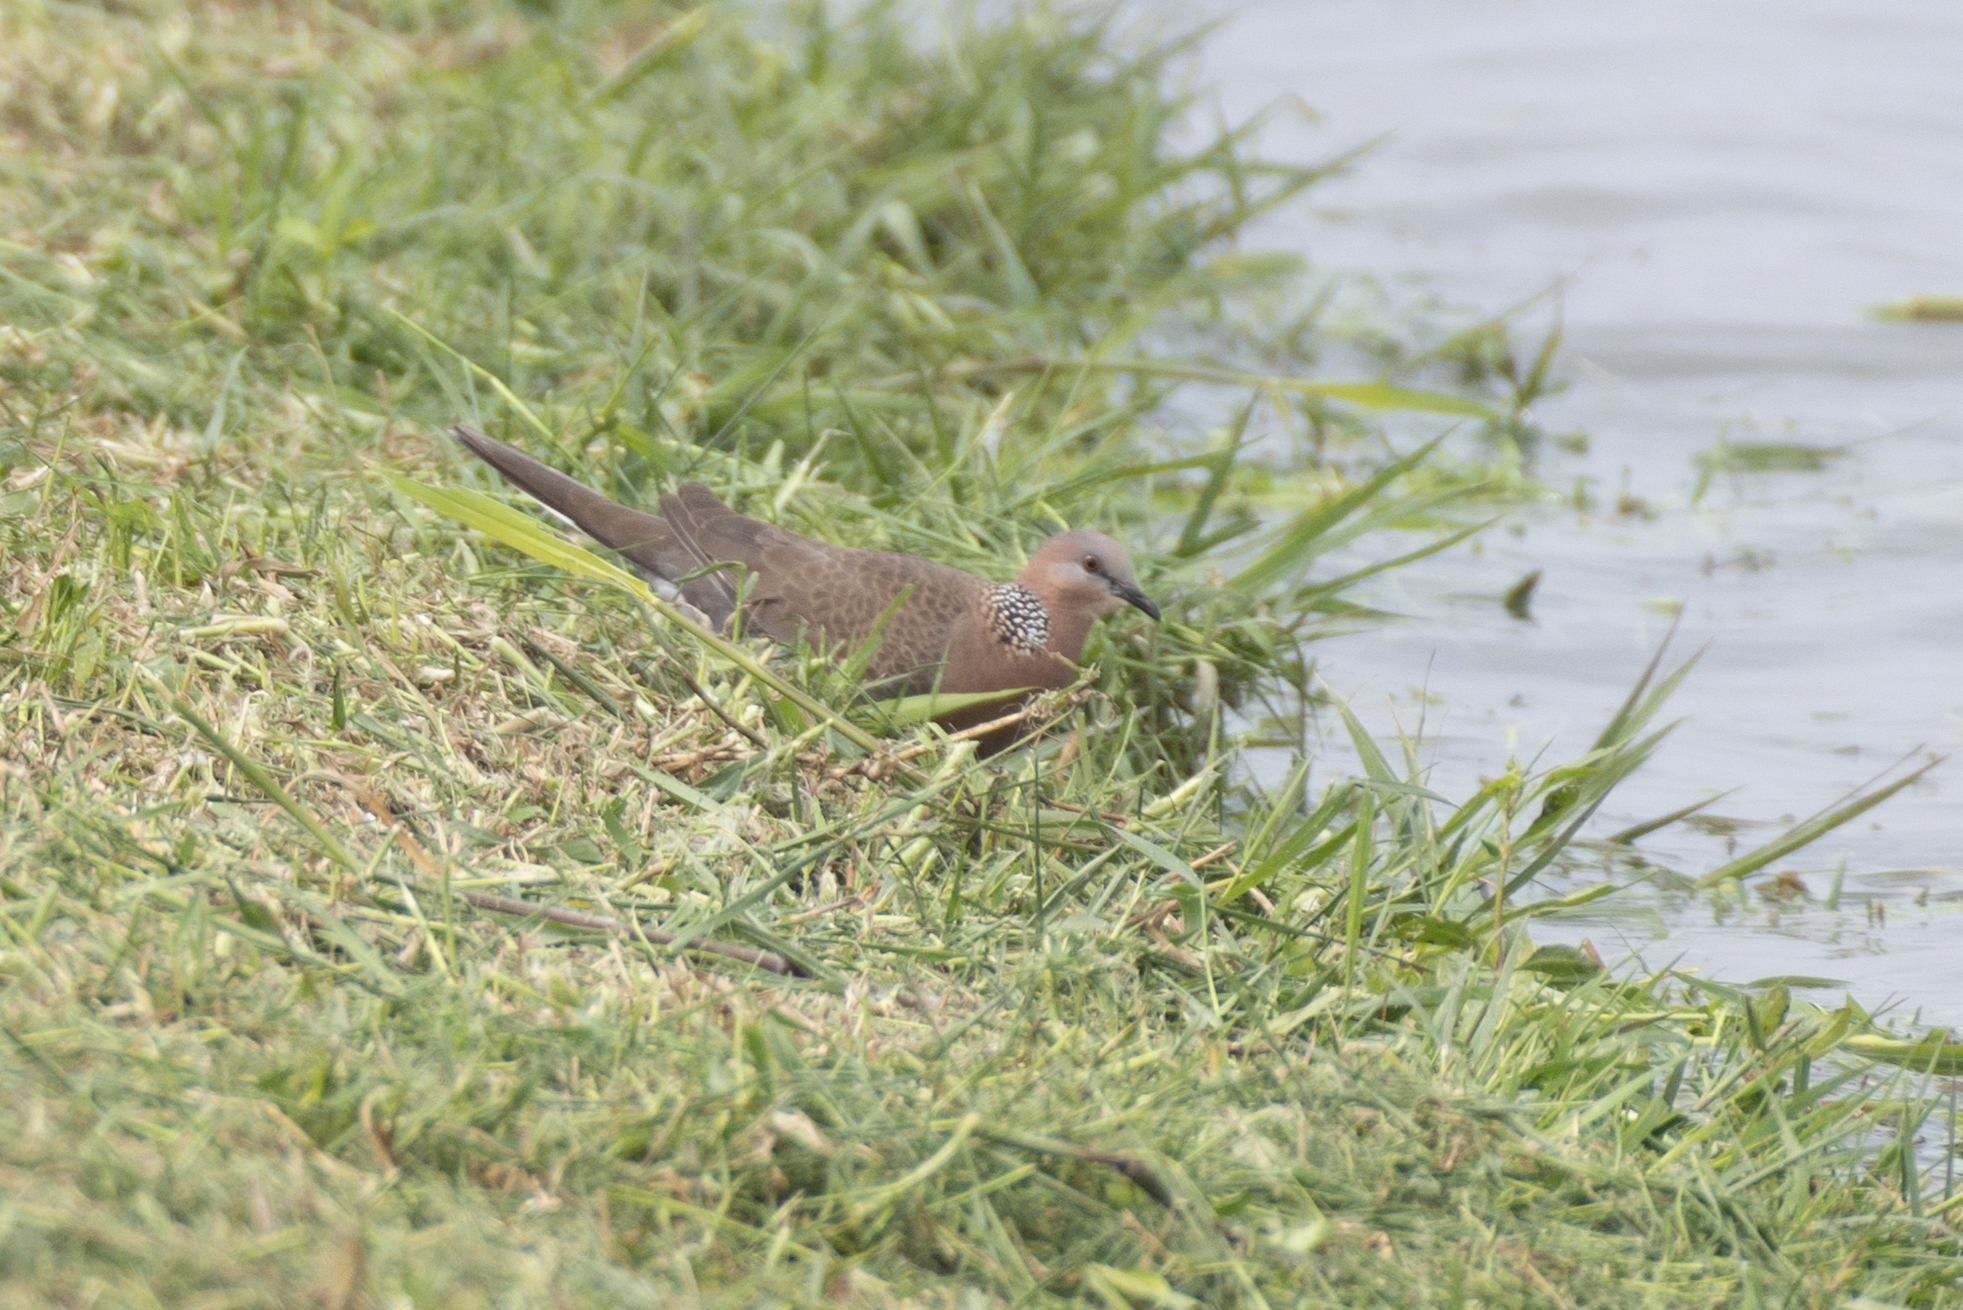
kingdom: Animalia
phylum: Chordata
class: Aves
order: Columbiformes
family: Columbidae
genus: Spilopelia
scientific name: Spilopelia chinensis
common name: Spotted dove
